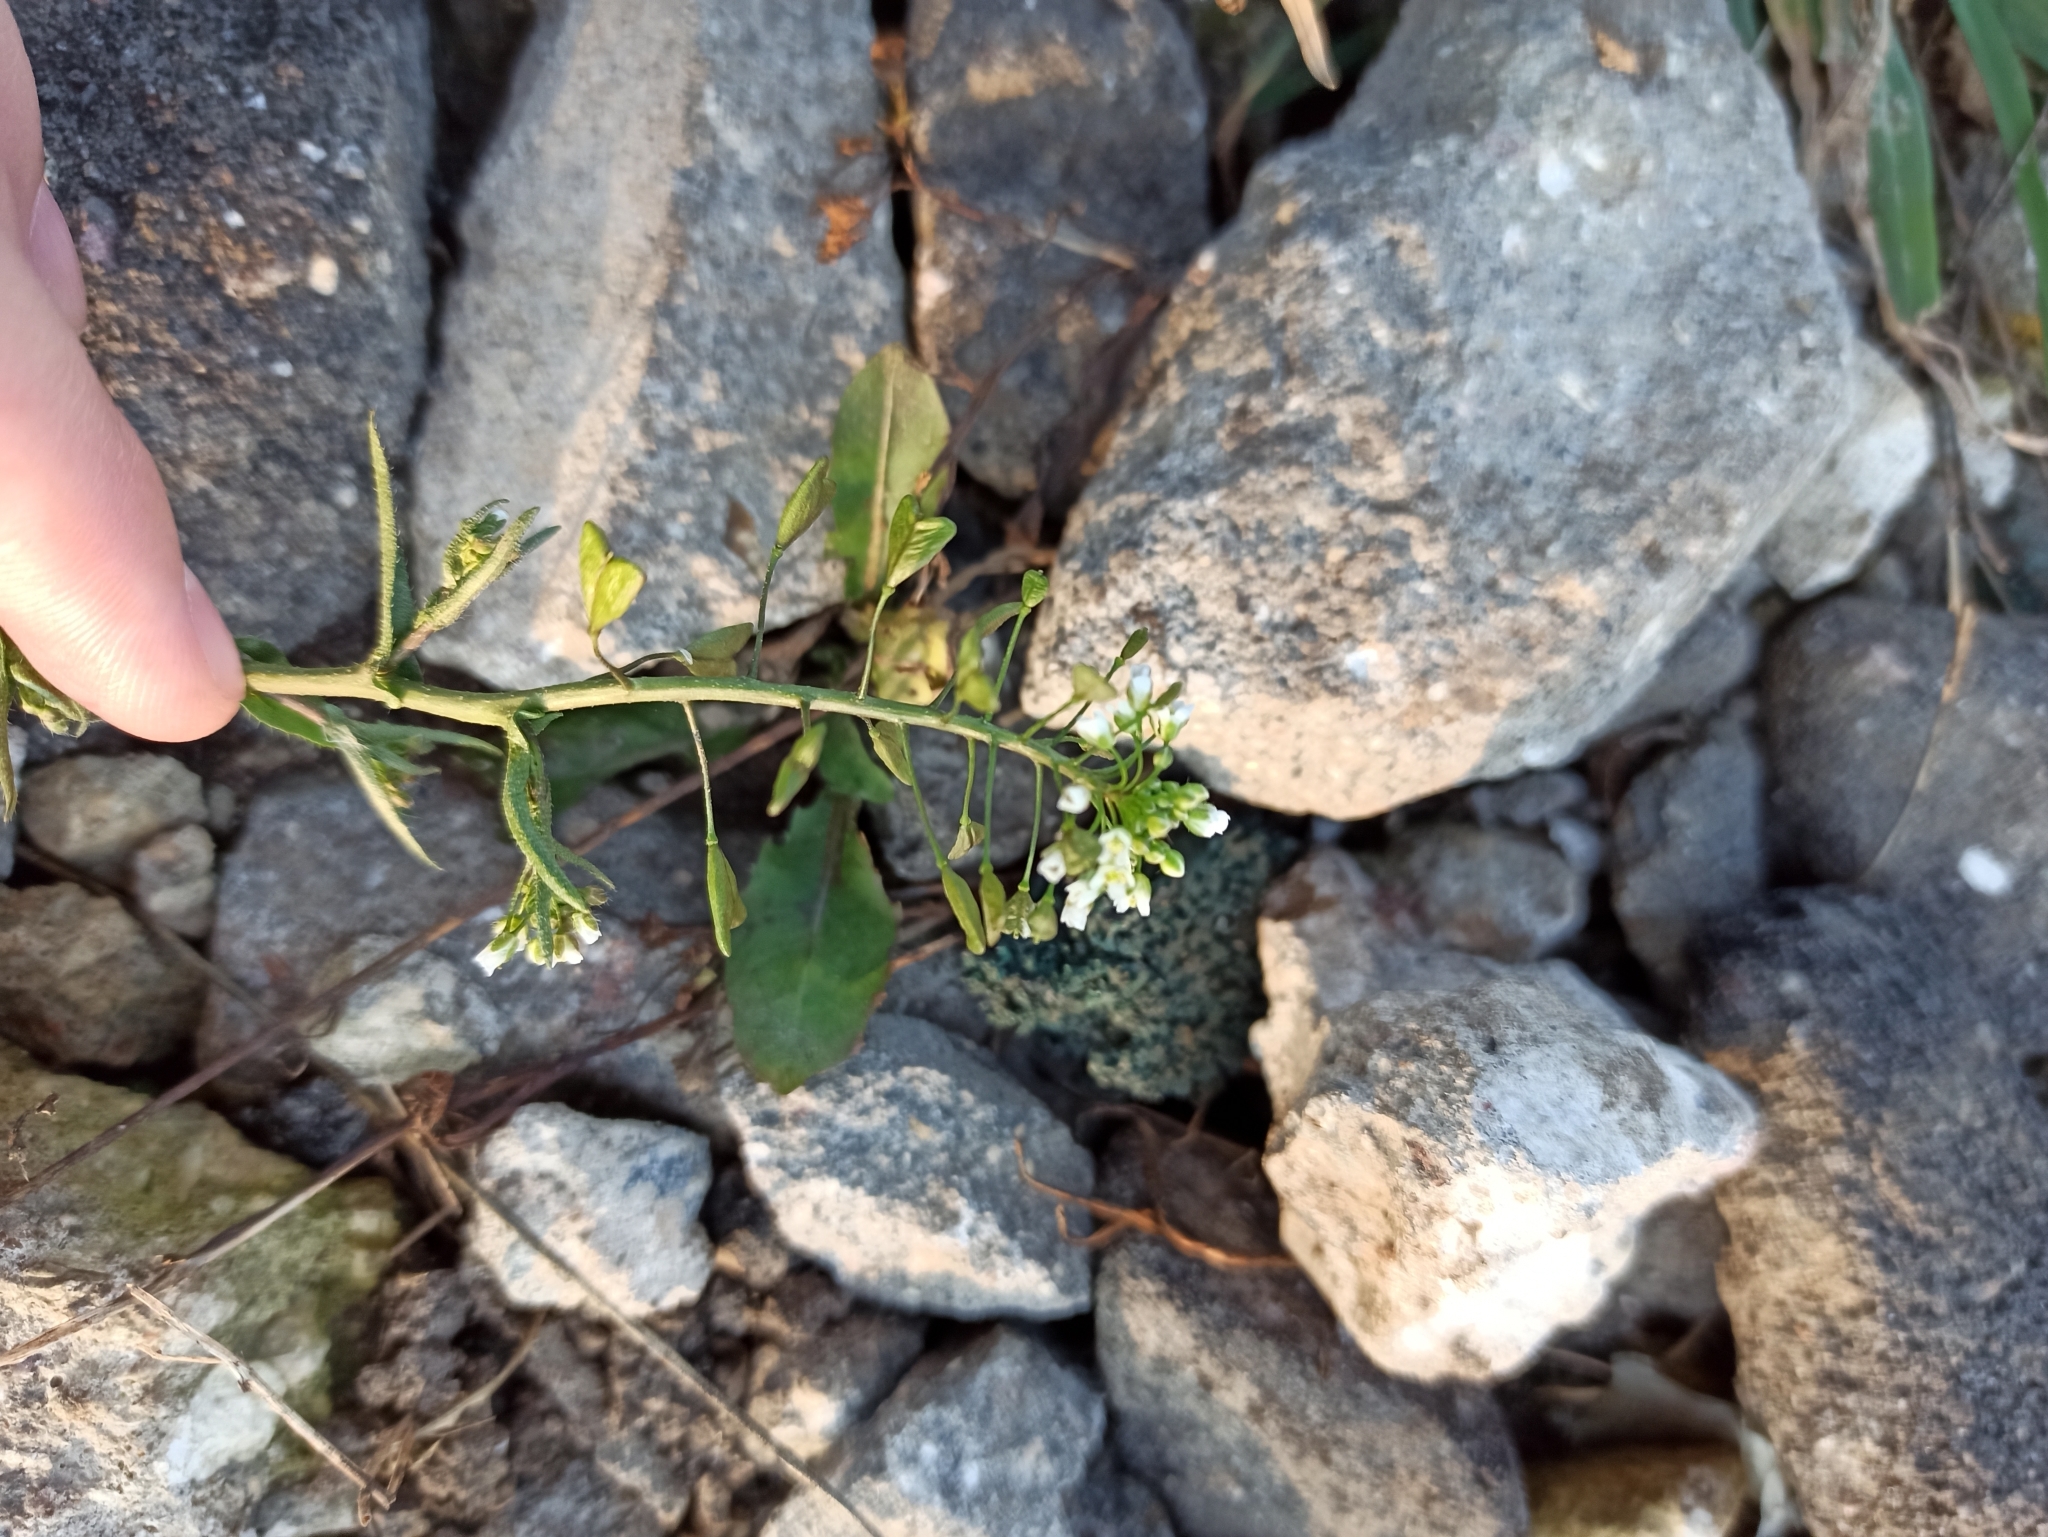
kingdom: Plantae
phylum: Tracheophyta
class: Magnoliopsida
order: Brassicales
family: Brassicaceae
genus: Capsella
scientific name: Capsella bursa-pastoris
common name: Shepherd's purse
